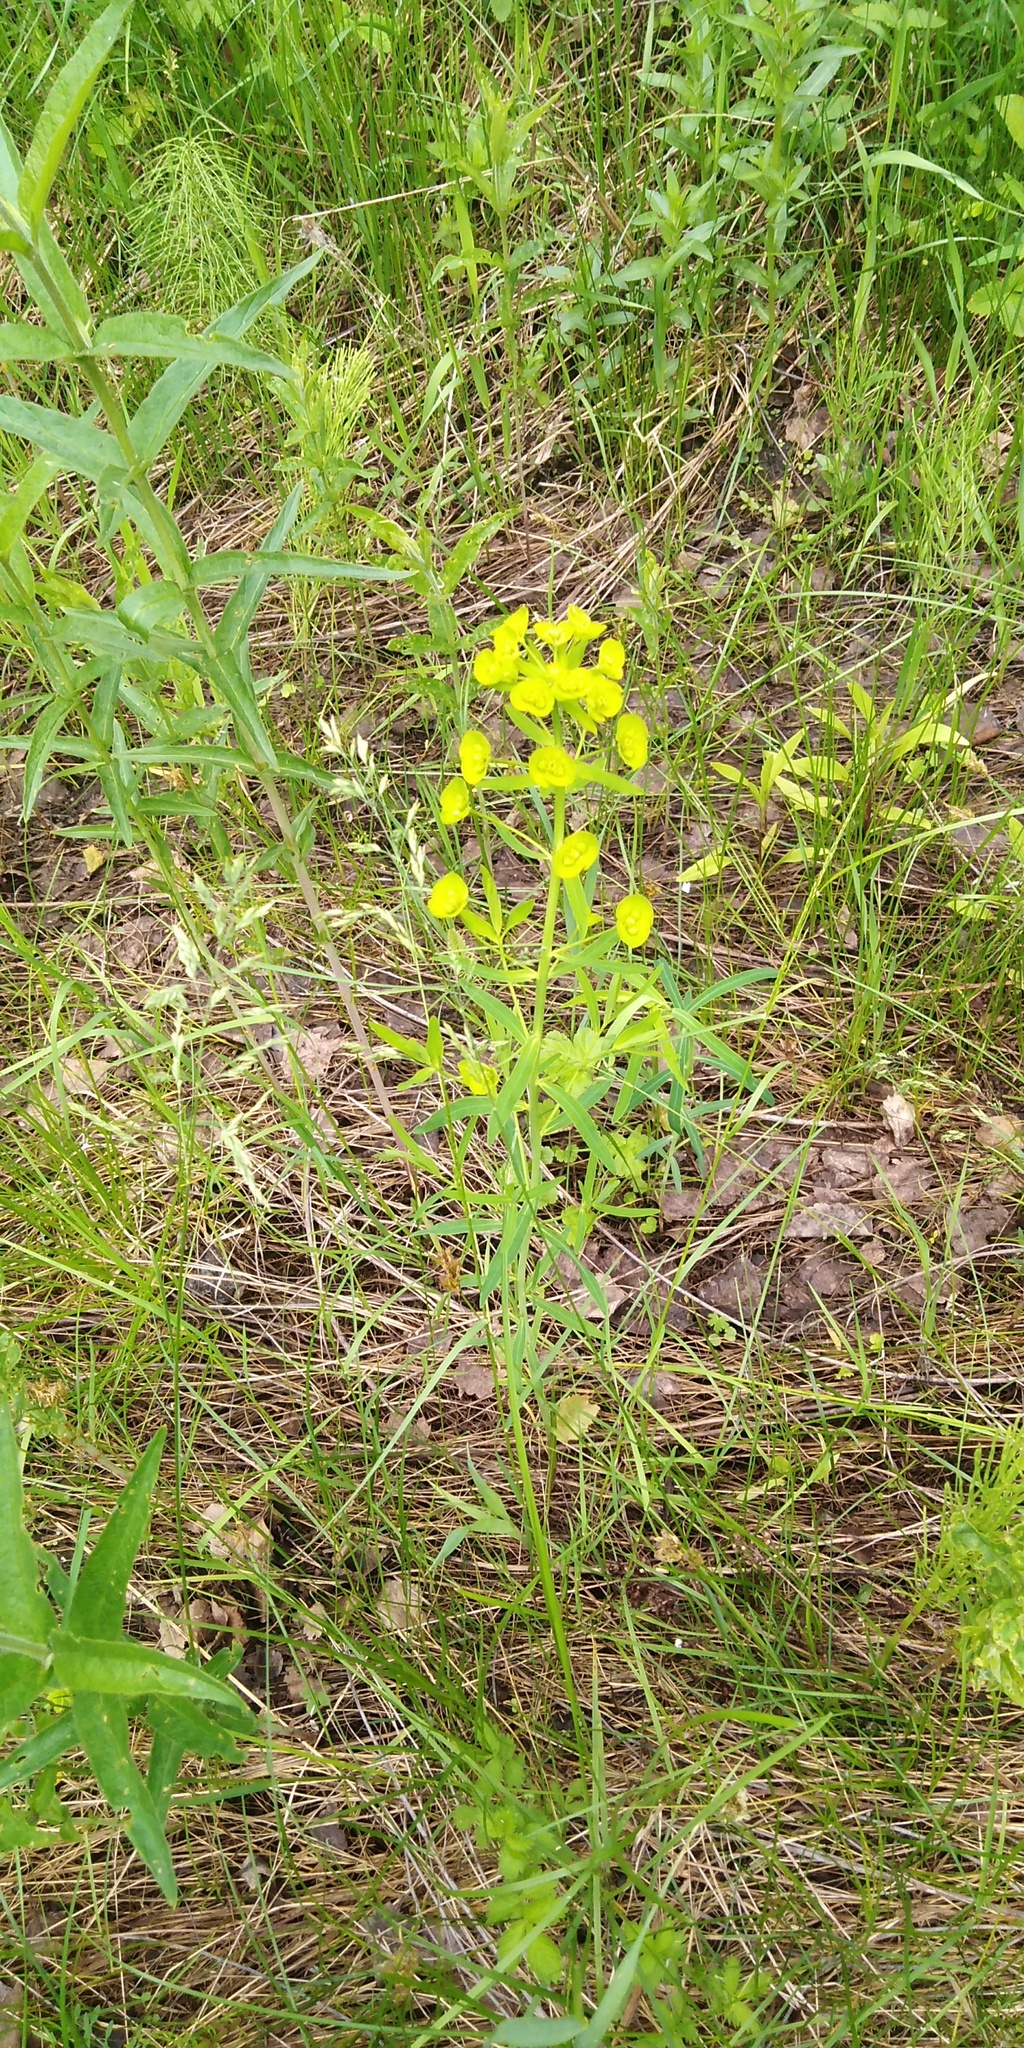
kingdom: Plantae
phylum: Tracheophyta
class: Magnoliopsida
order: Malpighiales
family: Euphorbiaceae
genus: Euphorbia
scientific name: Euphorbia virgata
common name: Leafy spurge
